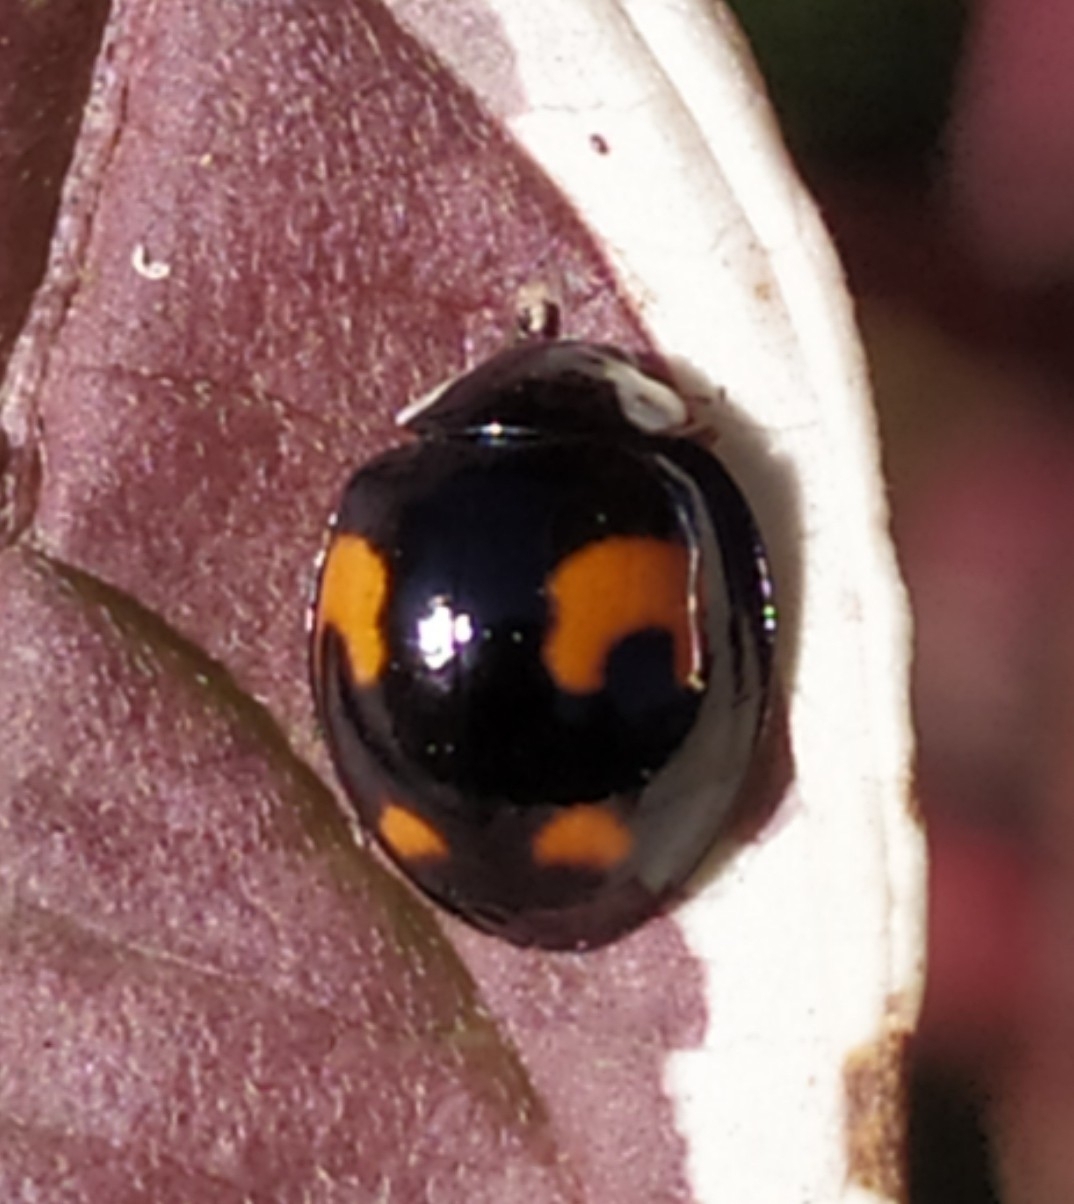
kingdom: Animalia
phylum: Arthropoda
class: Insecta
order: Coleoptera
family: Coccinellidae
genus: Harmonia
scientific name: Harmonia axyridis
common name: Harlequin ladybird
